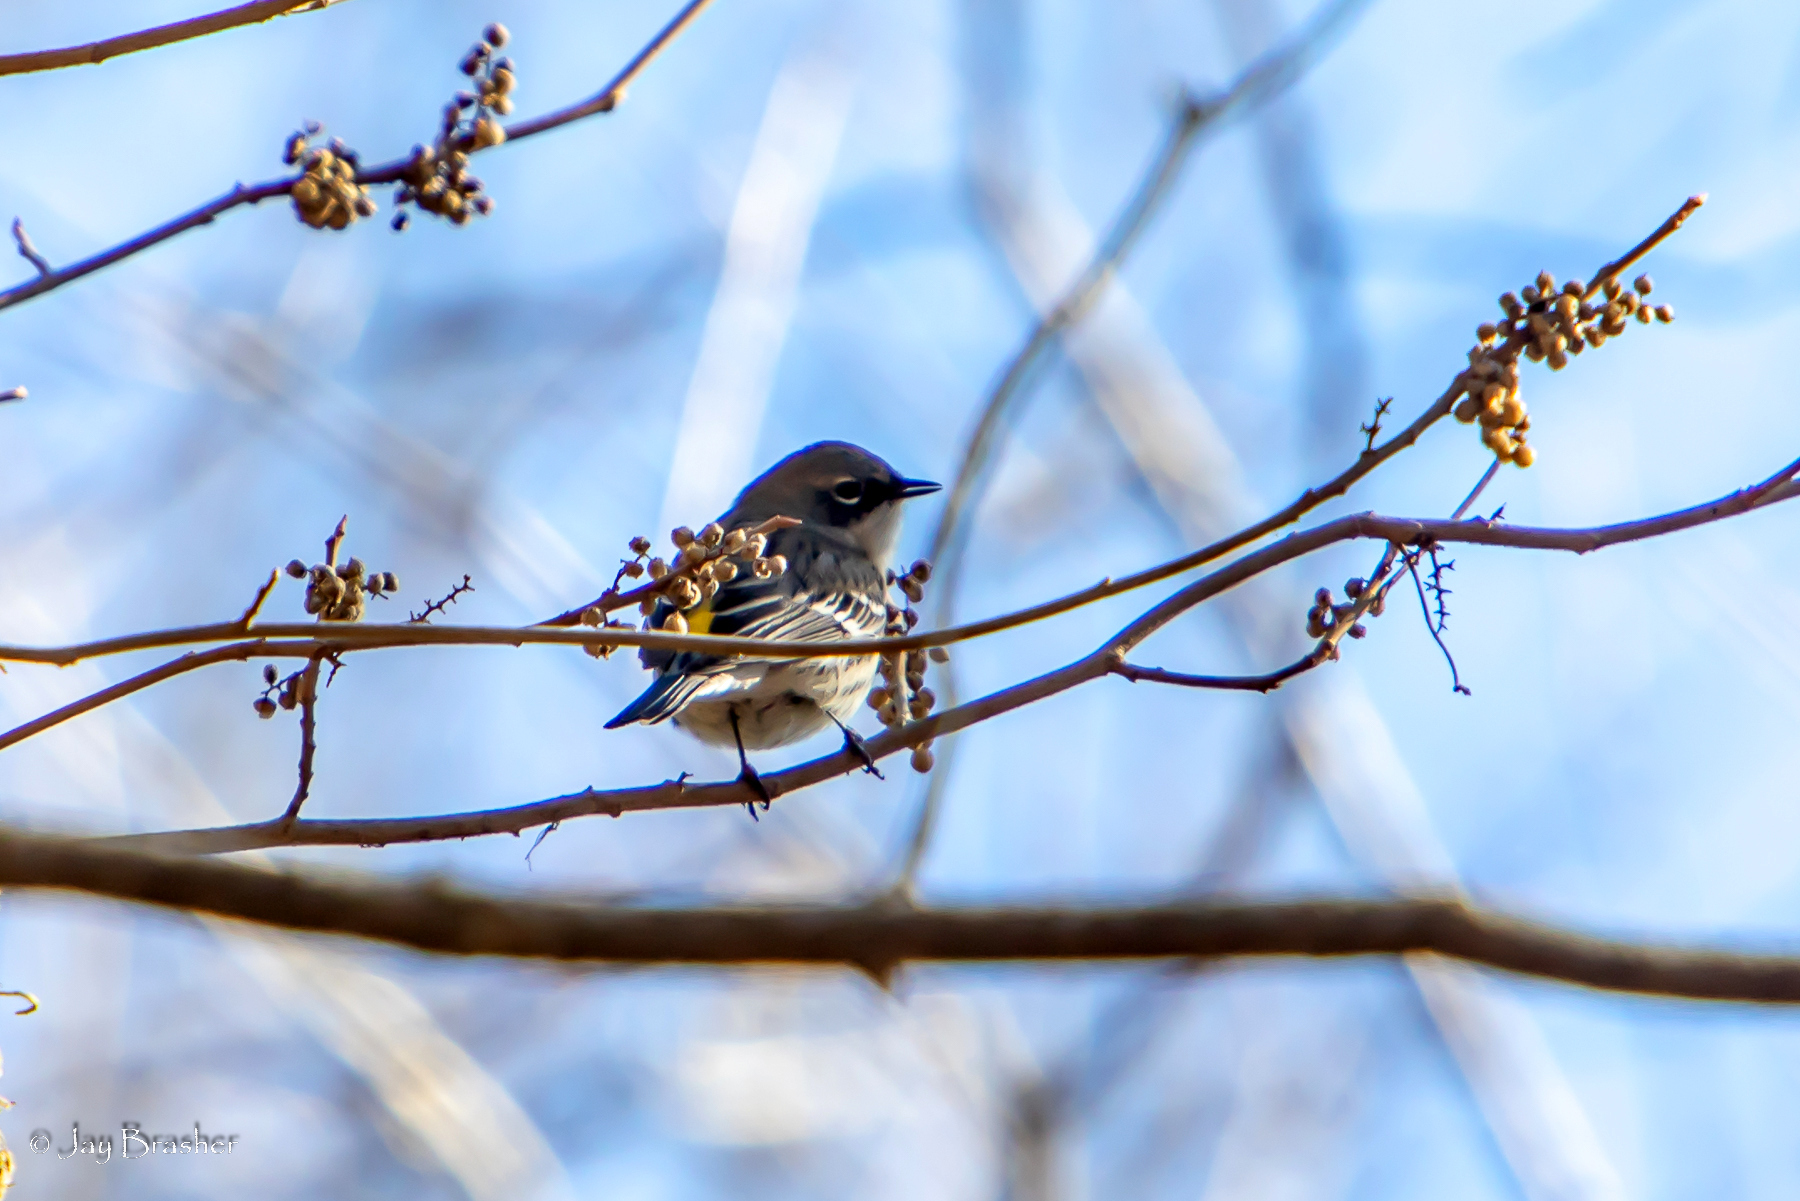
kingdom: Animalia
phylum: Chordata
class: Aves
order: Passeriformes
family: Parulidae
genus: Setophaga
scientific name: Setophaga coronata
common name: Myrtle warbler
